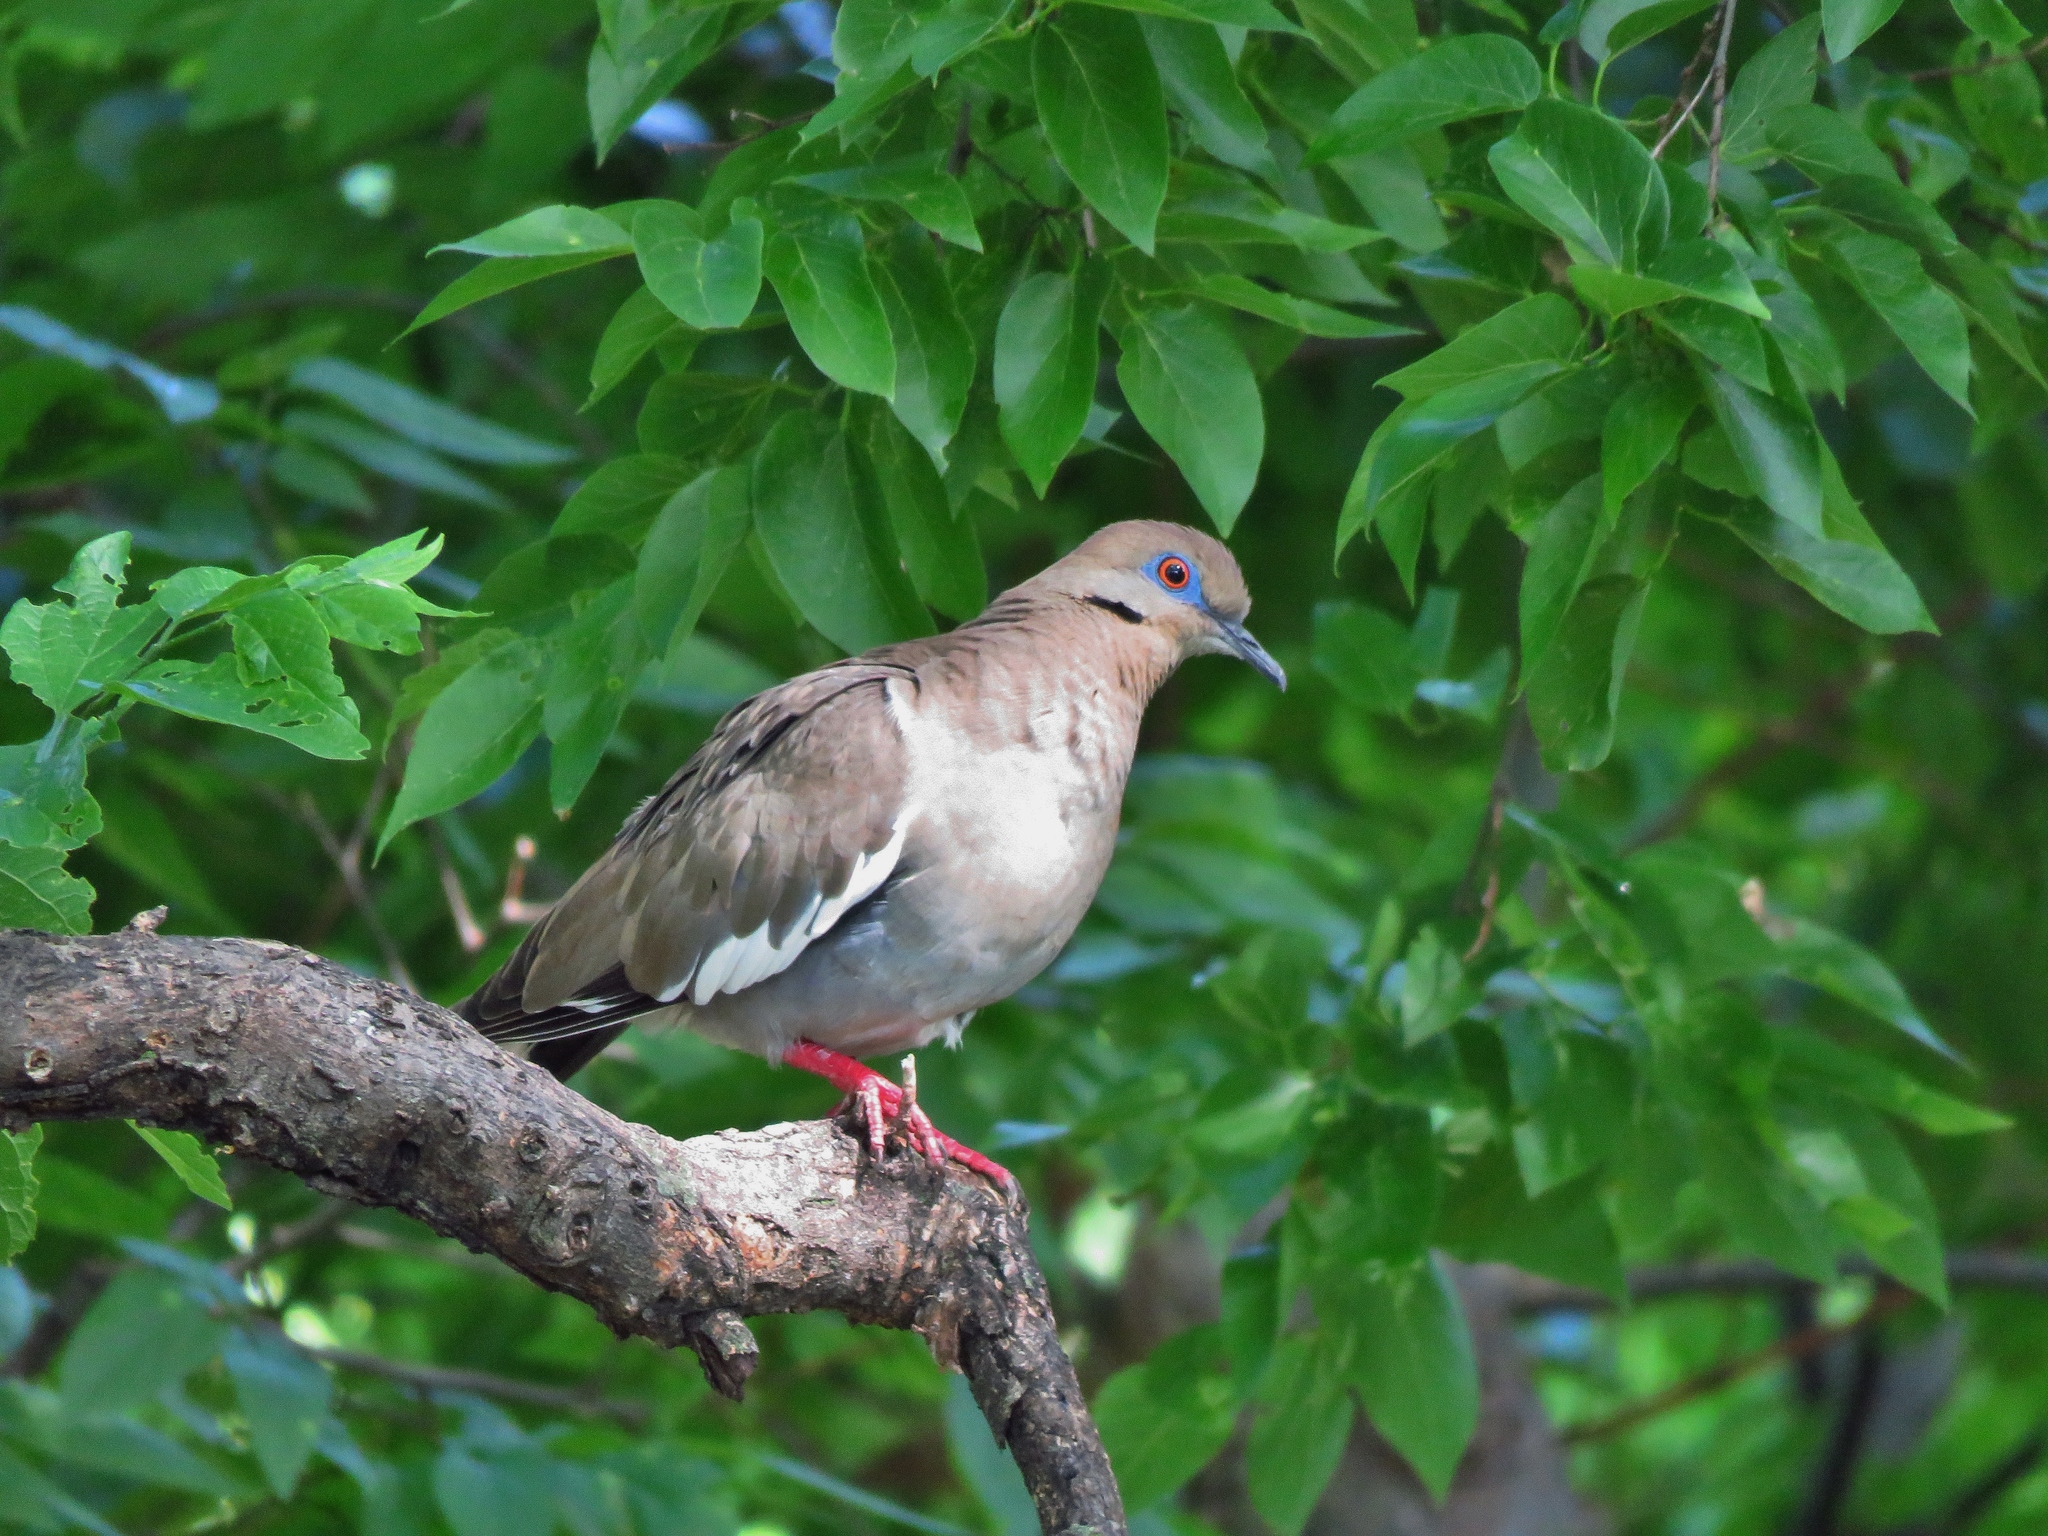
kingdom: Animalia
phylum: Chordata
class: Aves
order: Columbiformes
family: Columbidae
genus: Zenaida
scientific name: Zenaida asiatica
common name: White-winged dove
